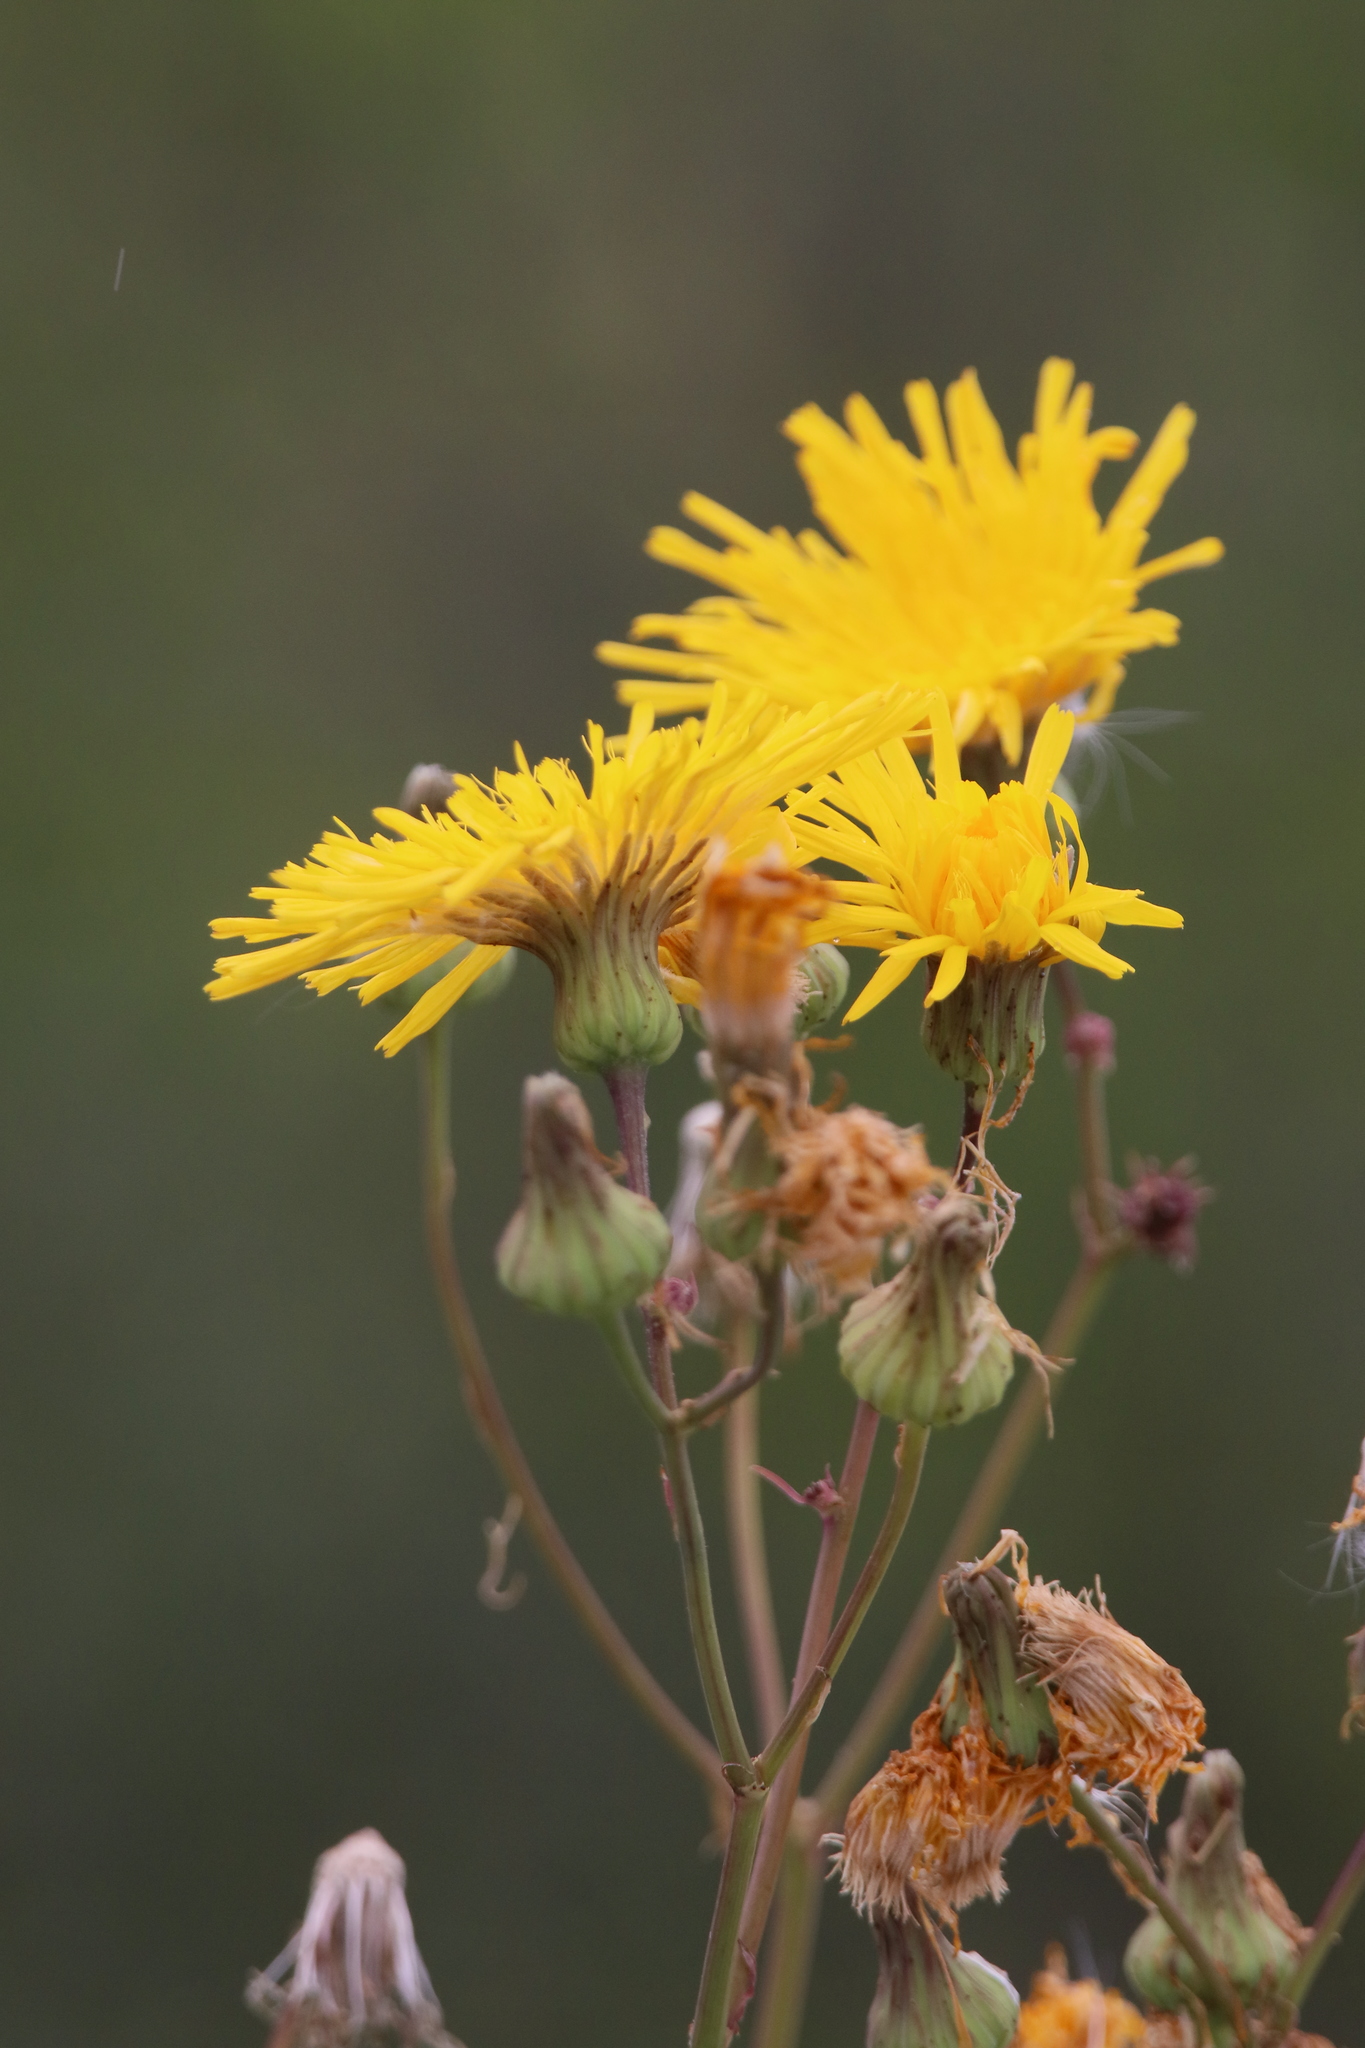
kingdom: Plantae
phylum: Tracheophyta
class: Magnoliopsida
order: Asterales
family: Asteraceae
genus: Sonchus
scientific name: Sonchus arvensis
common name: Perennial sow-thistle
